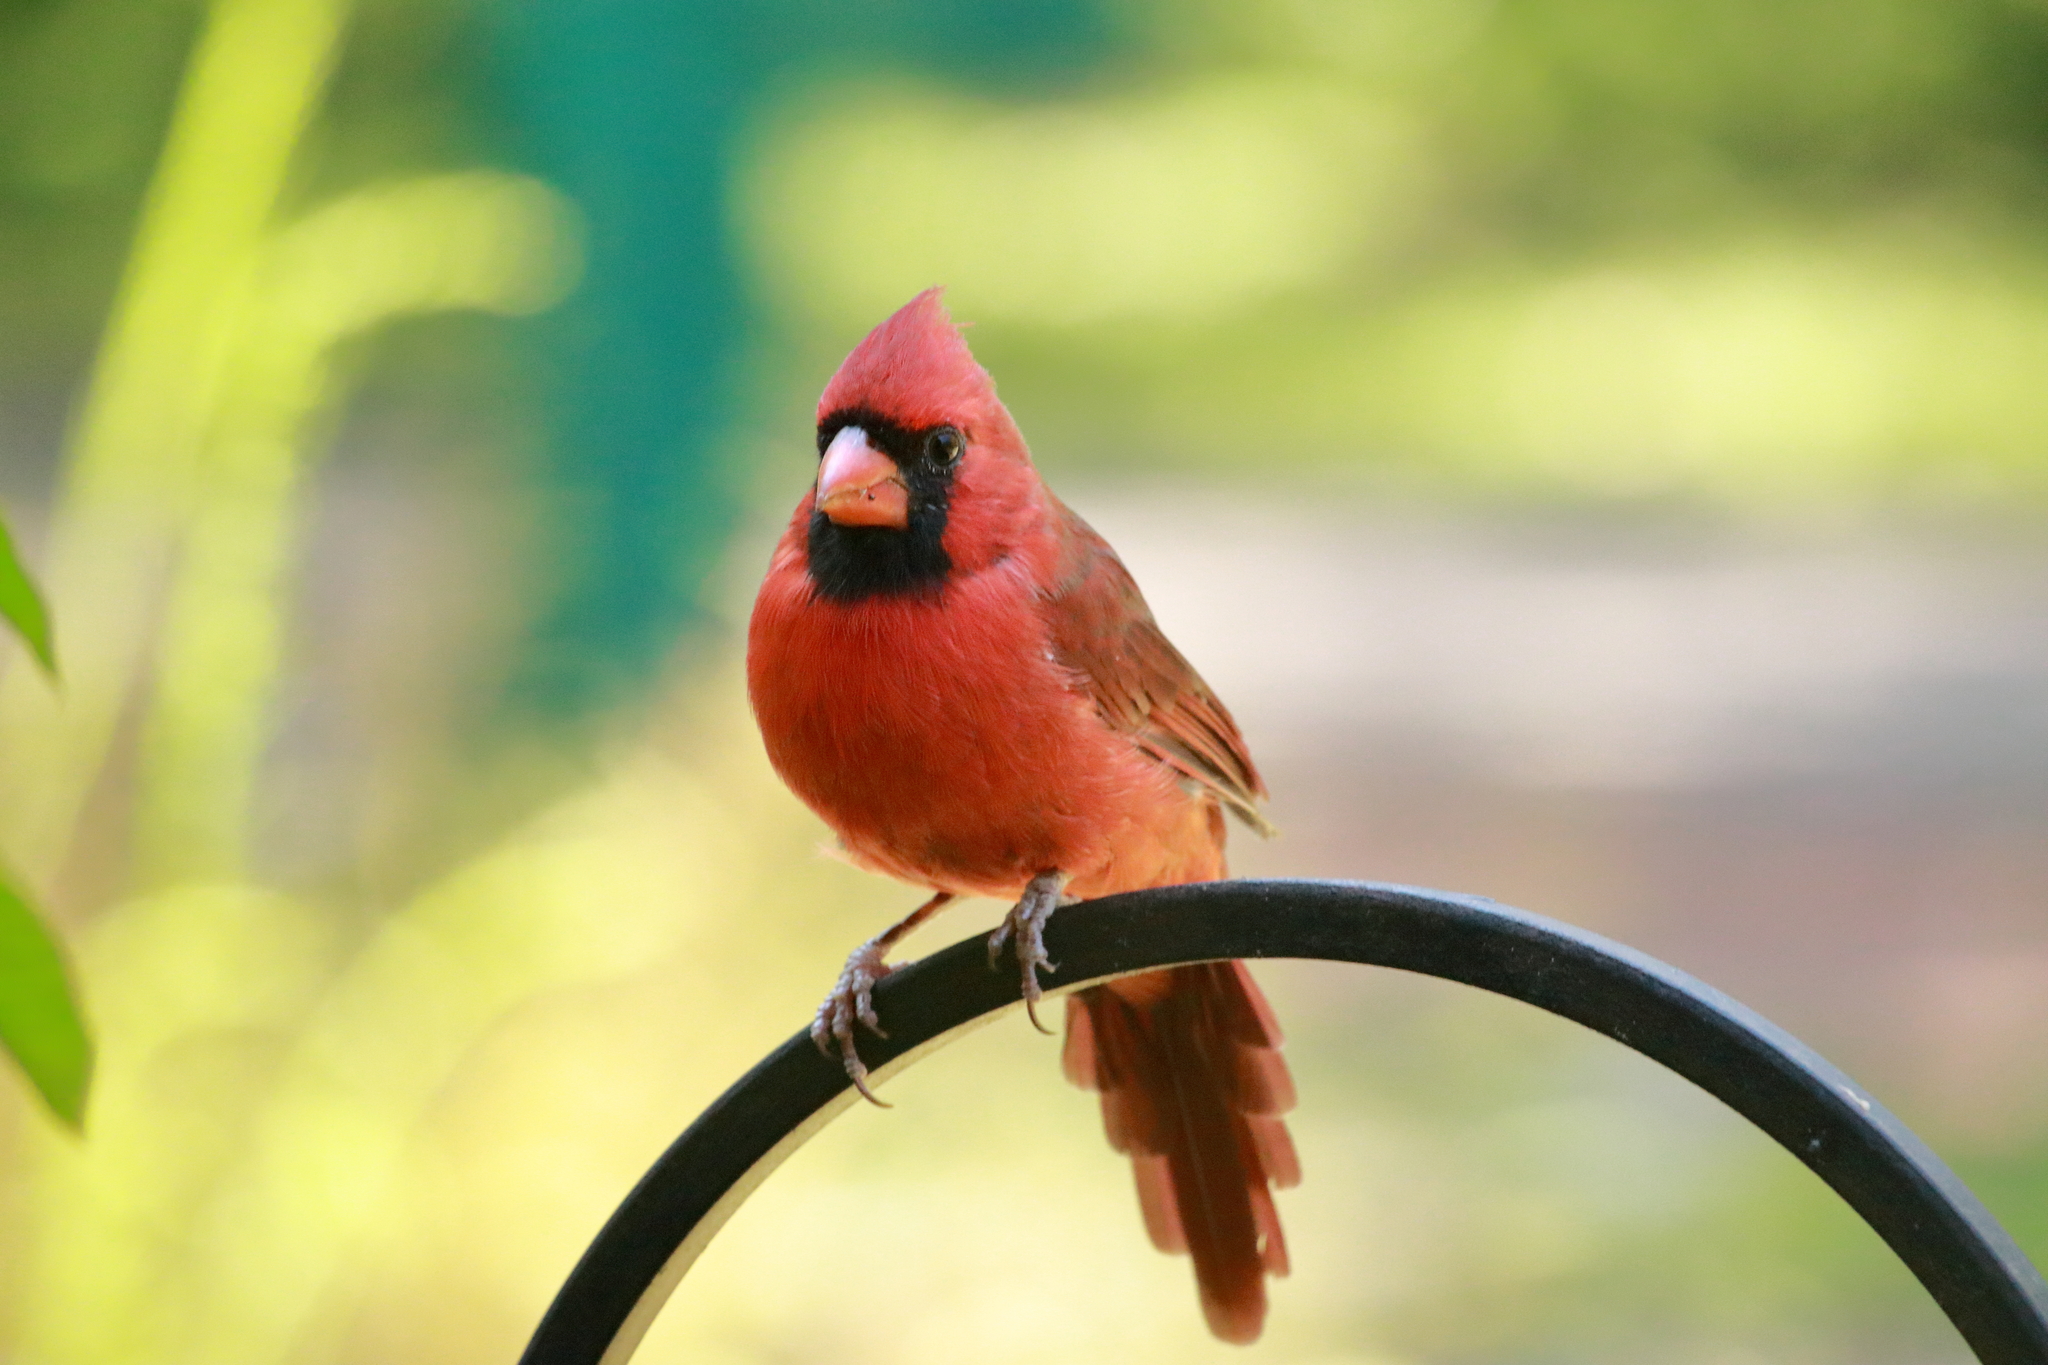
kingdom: Animalia
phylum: Chordata
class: Aves
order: Passeriformes
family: Cardinalidae
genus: Cardinalis
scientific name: Cardinalis cardinalis
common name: Northern cardinal
